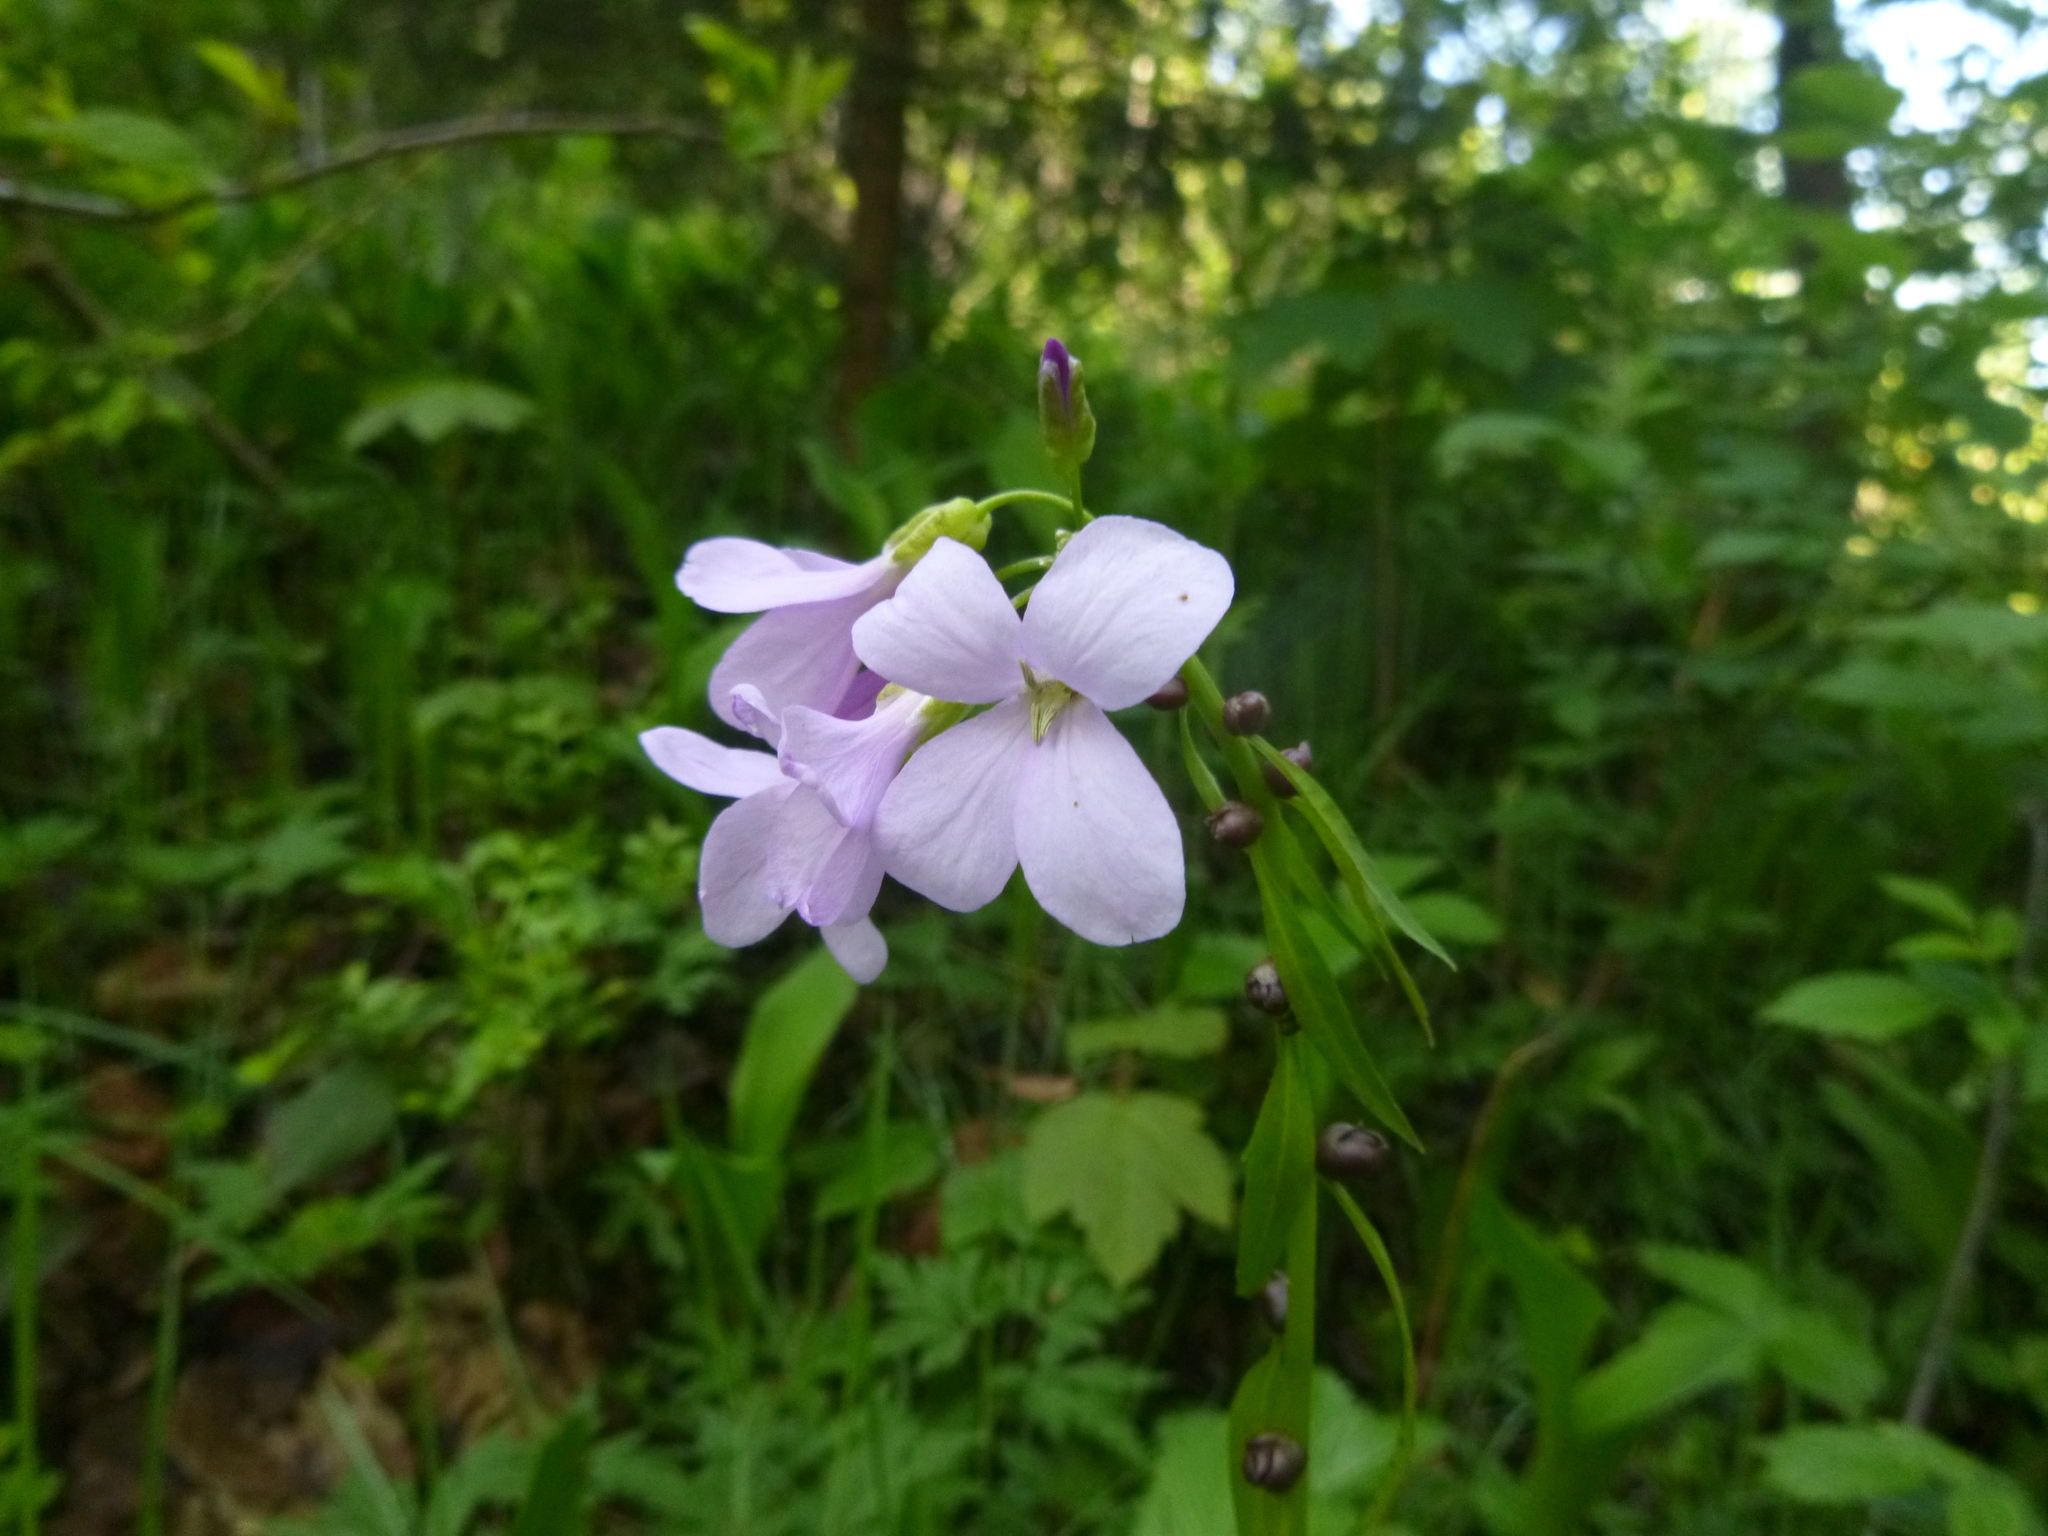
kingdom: Plantae
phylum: Tracheophyta
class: Magnoliopsida
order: Brassicales
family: Brassicaceae
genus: Cardamine
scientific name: Cardamine bulbifera
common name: Coralroot bittercress
